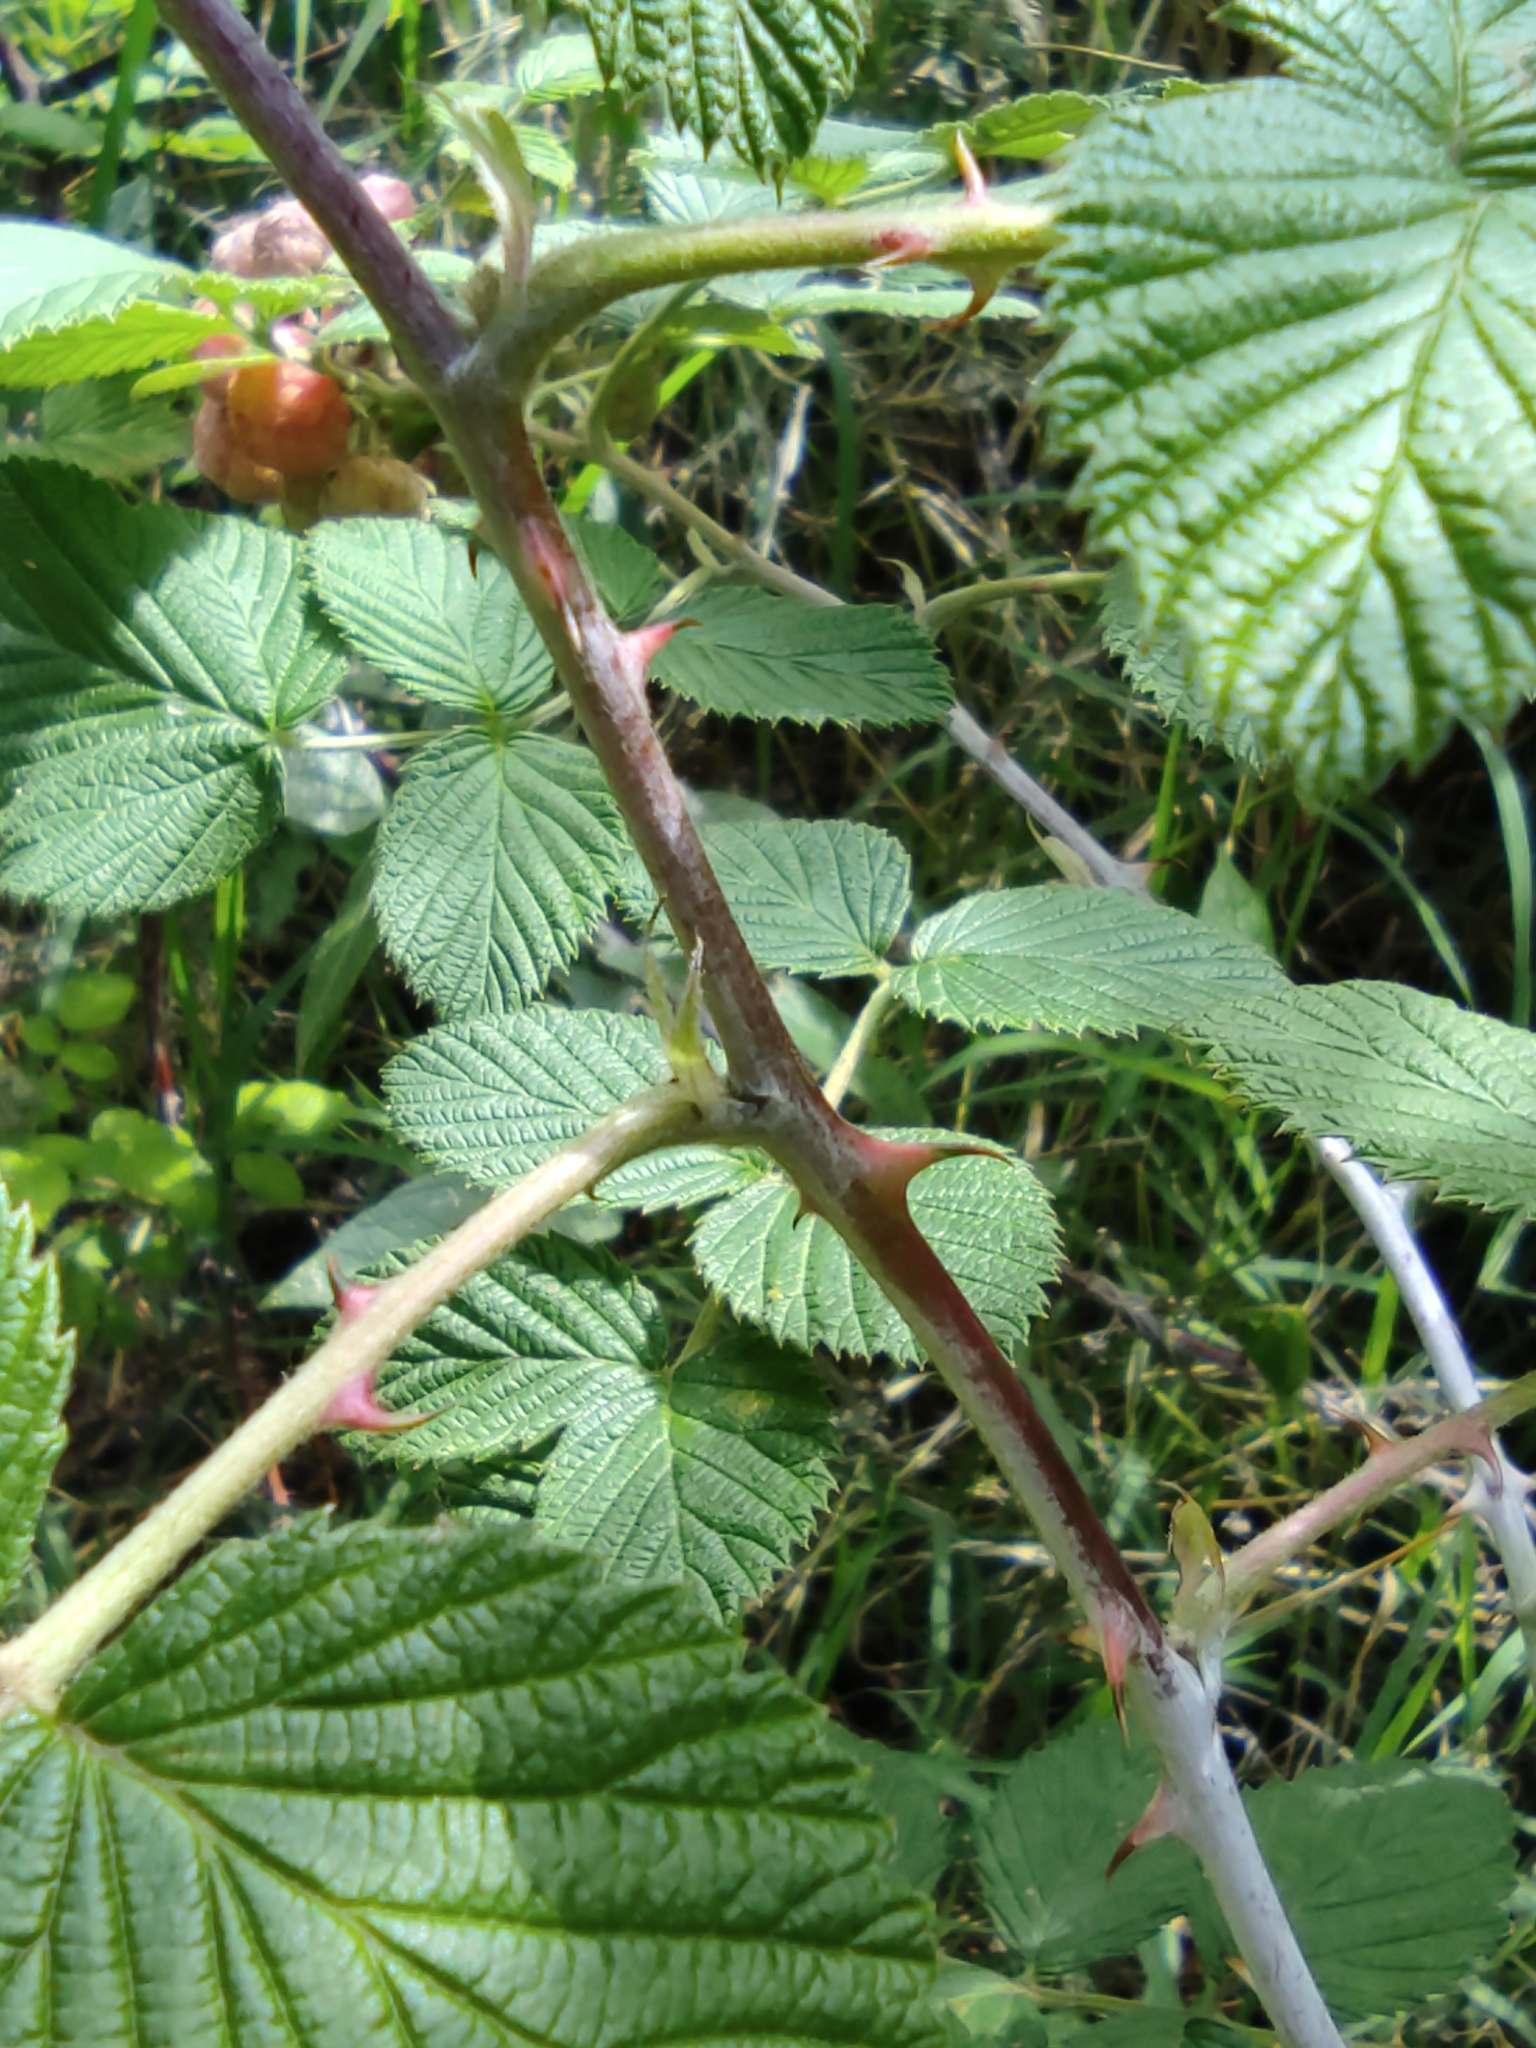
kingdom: Plantae
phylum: Tracheophyta
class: Magnoliopsida
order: Rosales
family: Rosaceae
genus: Rubus
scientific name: Rubus niveus
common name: Snowpeaks raspberry
